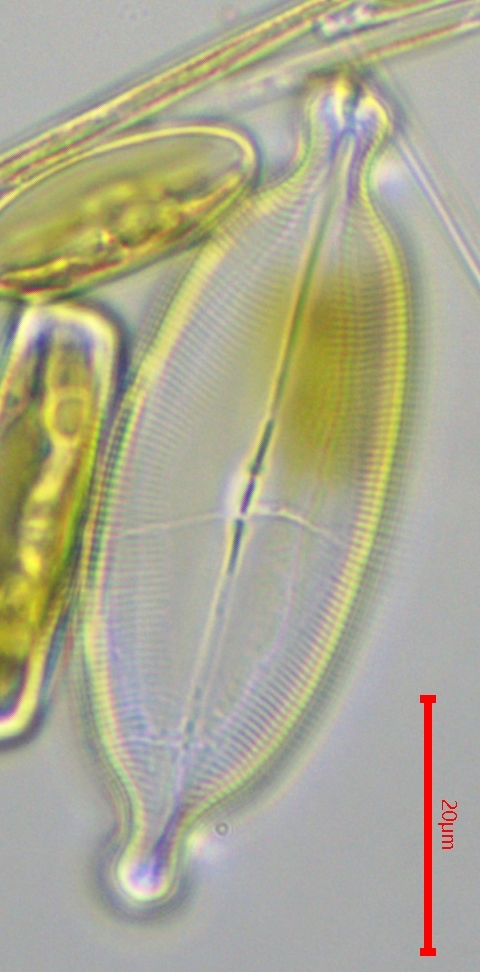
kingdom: Chromista
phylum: Ochrophyta
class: Bacillariophyceae
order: Naviculales
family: Naviculaceae
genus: Caloneis
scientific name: Caloneis amphisbaena
